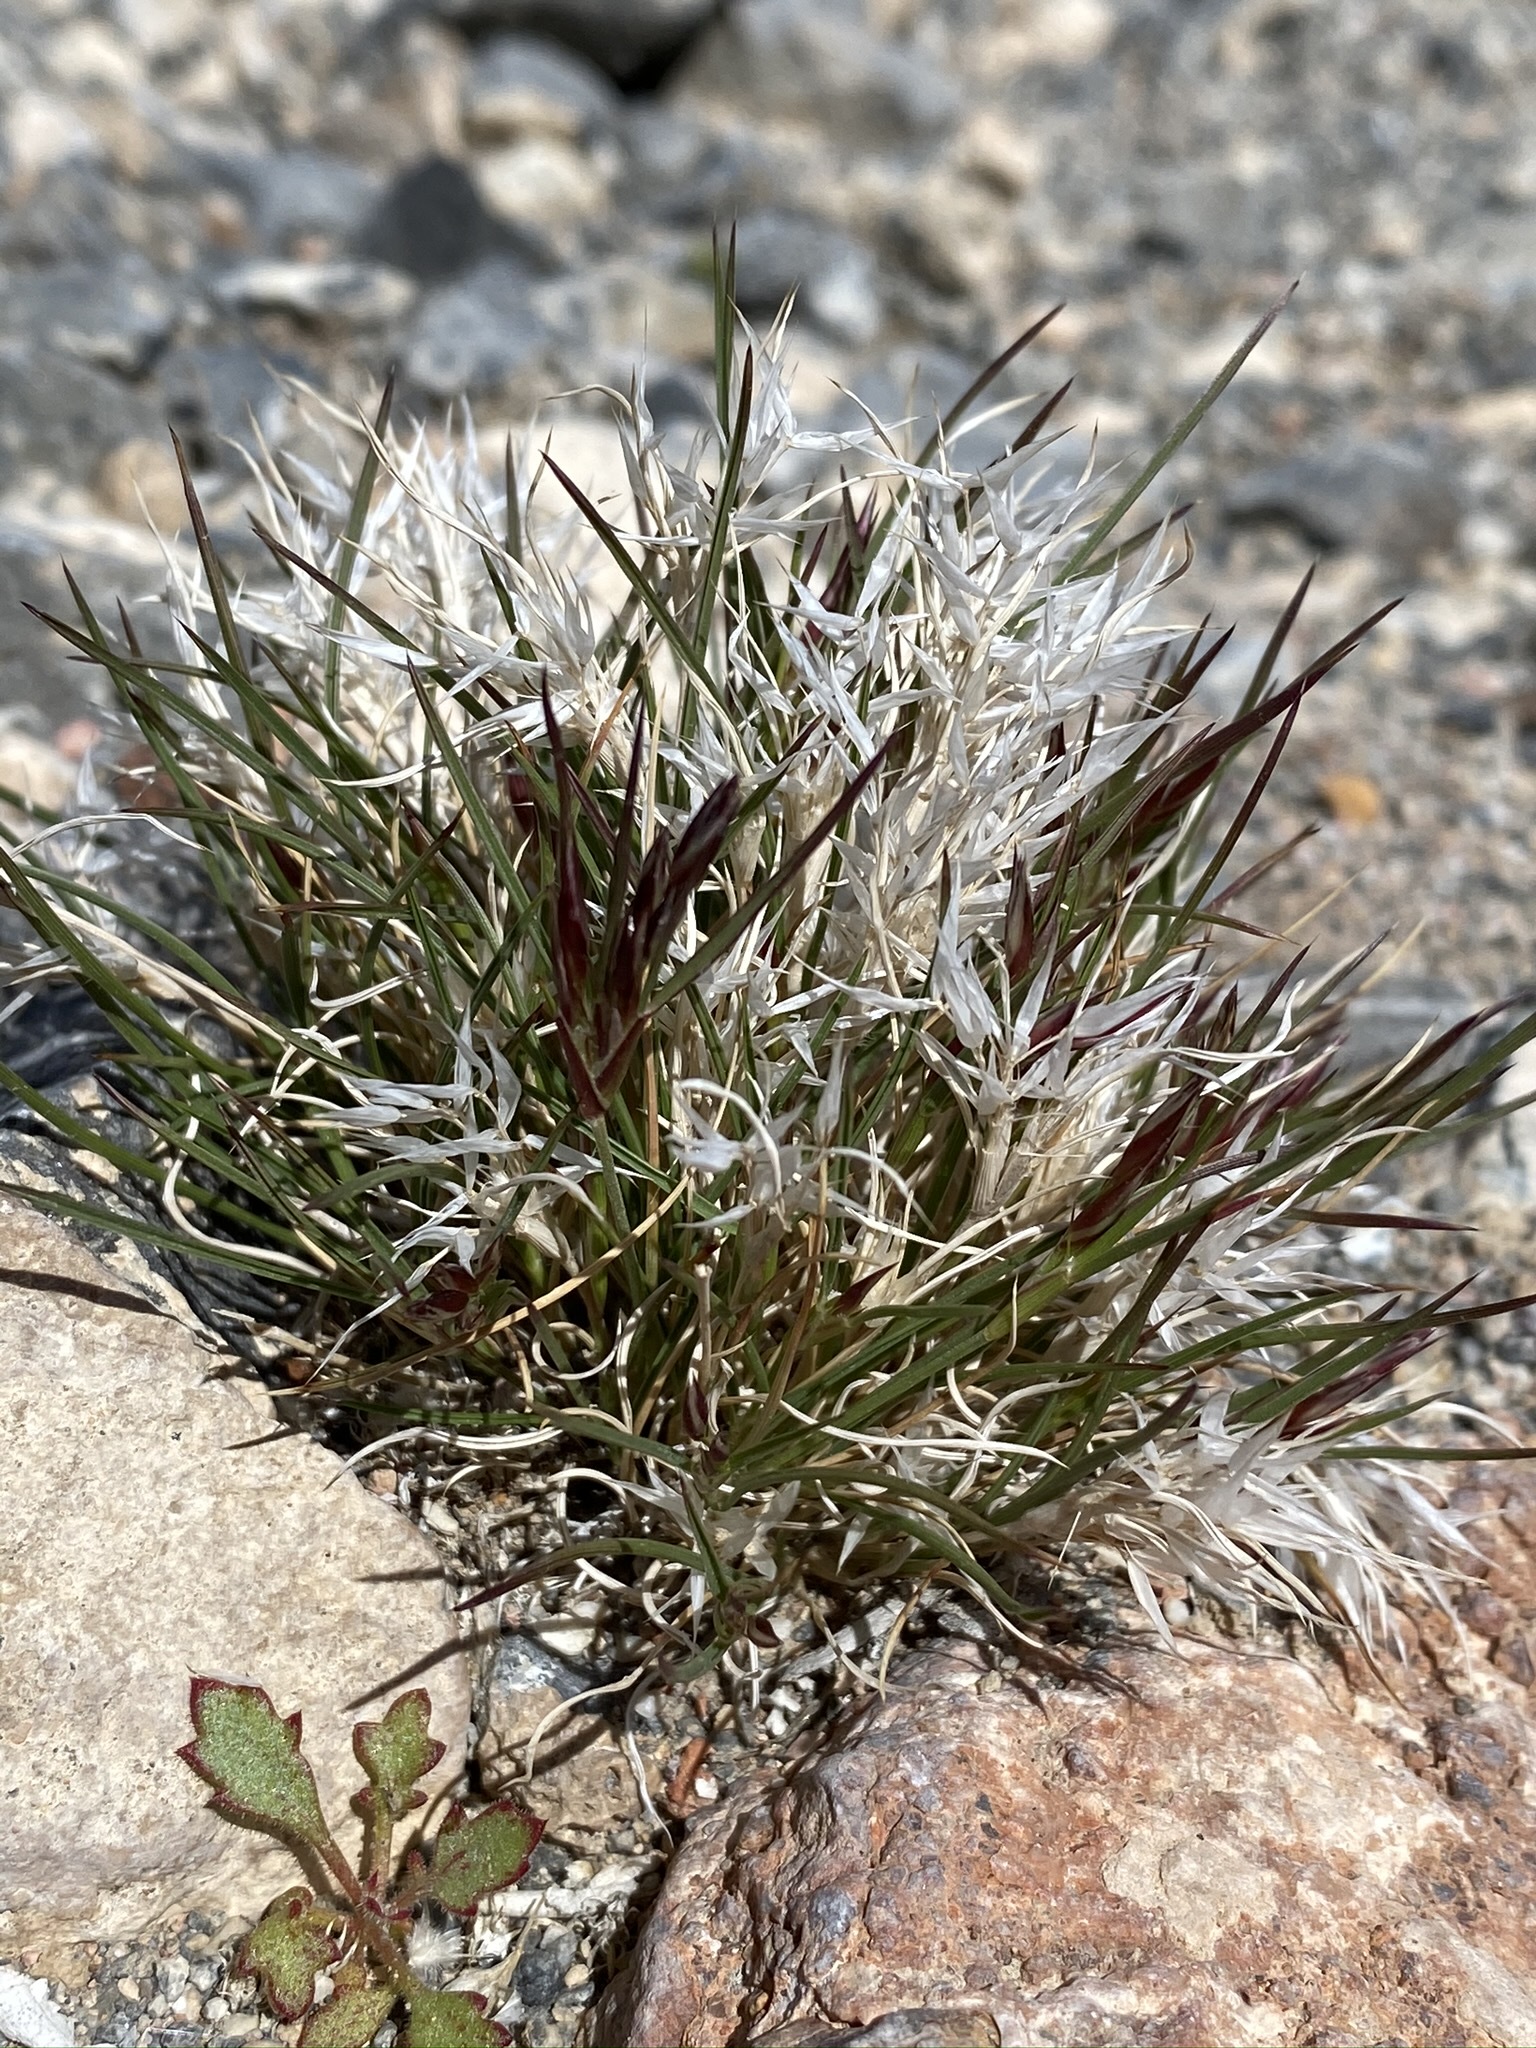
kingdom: Plantae
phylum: Tracheophyta
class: Liliopsida
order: Poales
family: Poaceae
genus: Dasyochloa
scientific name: Dasyochloa pulchella
